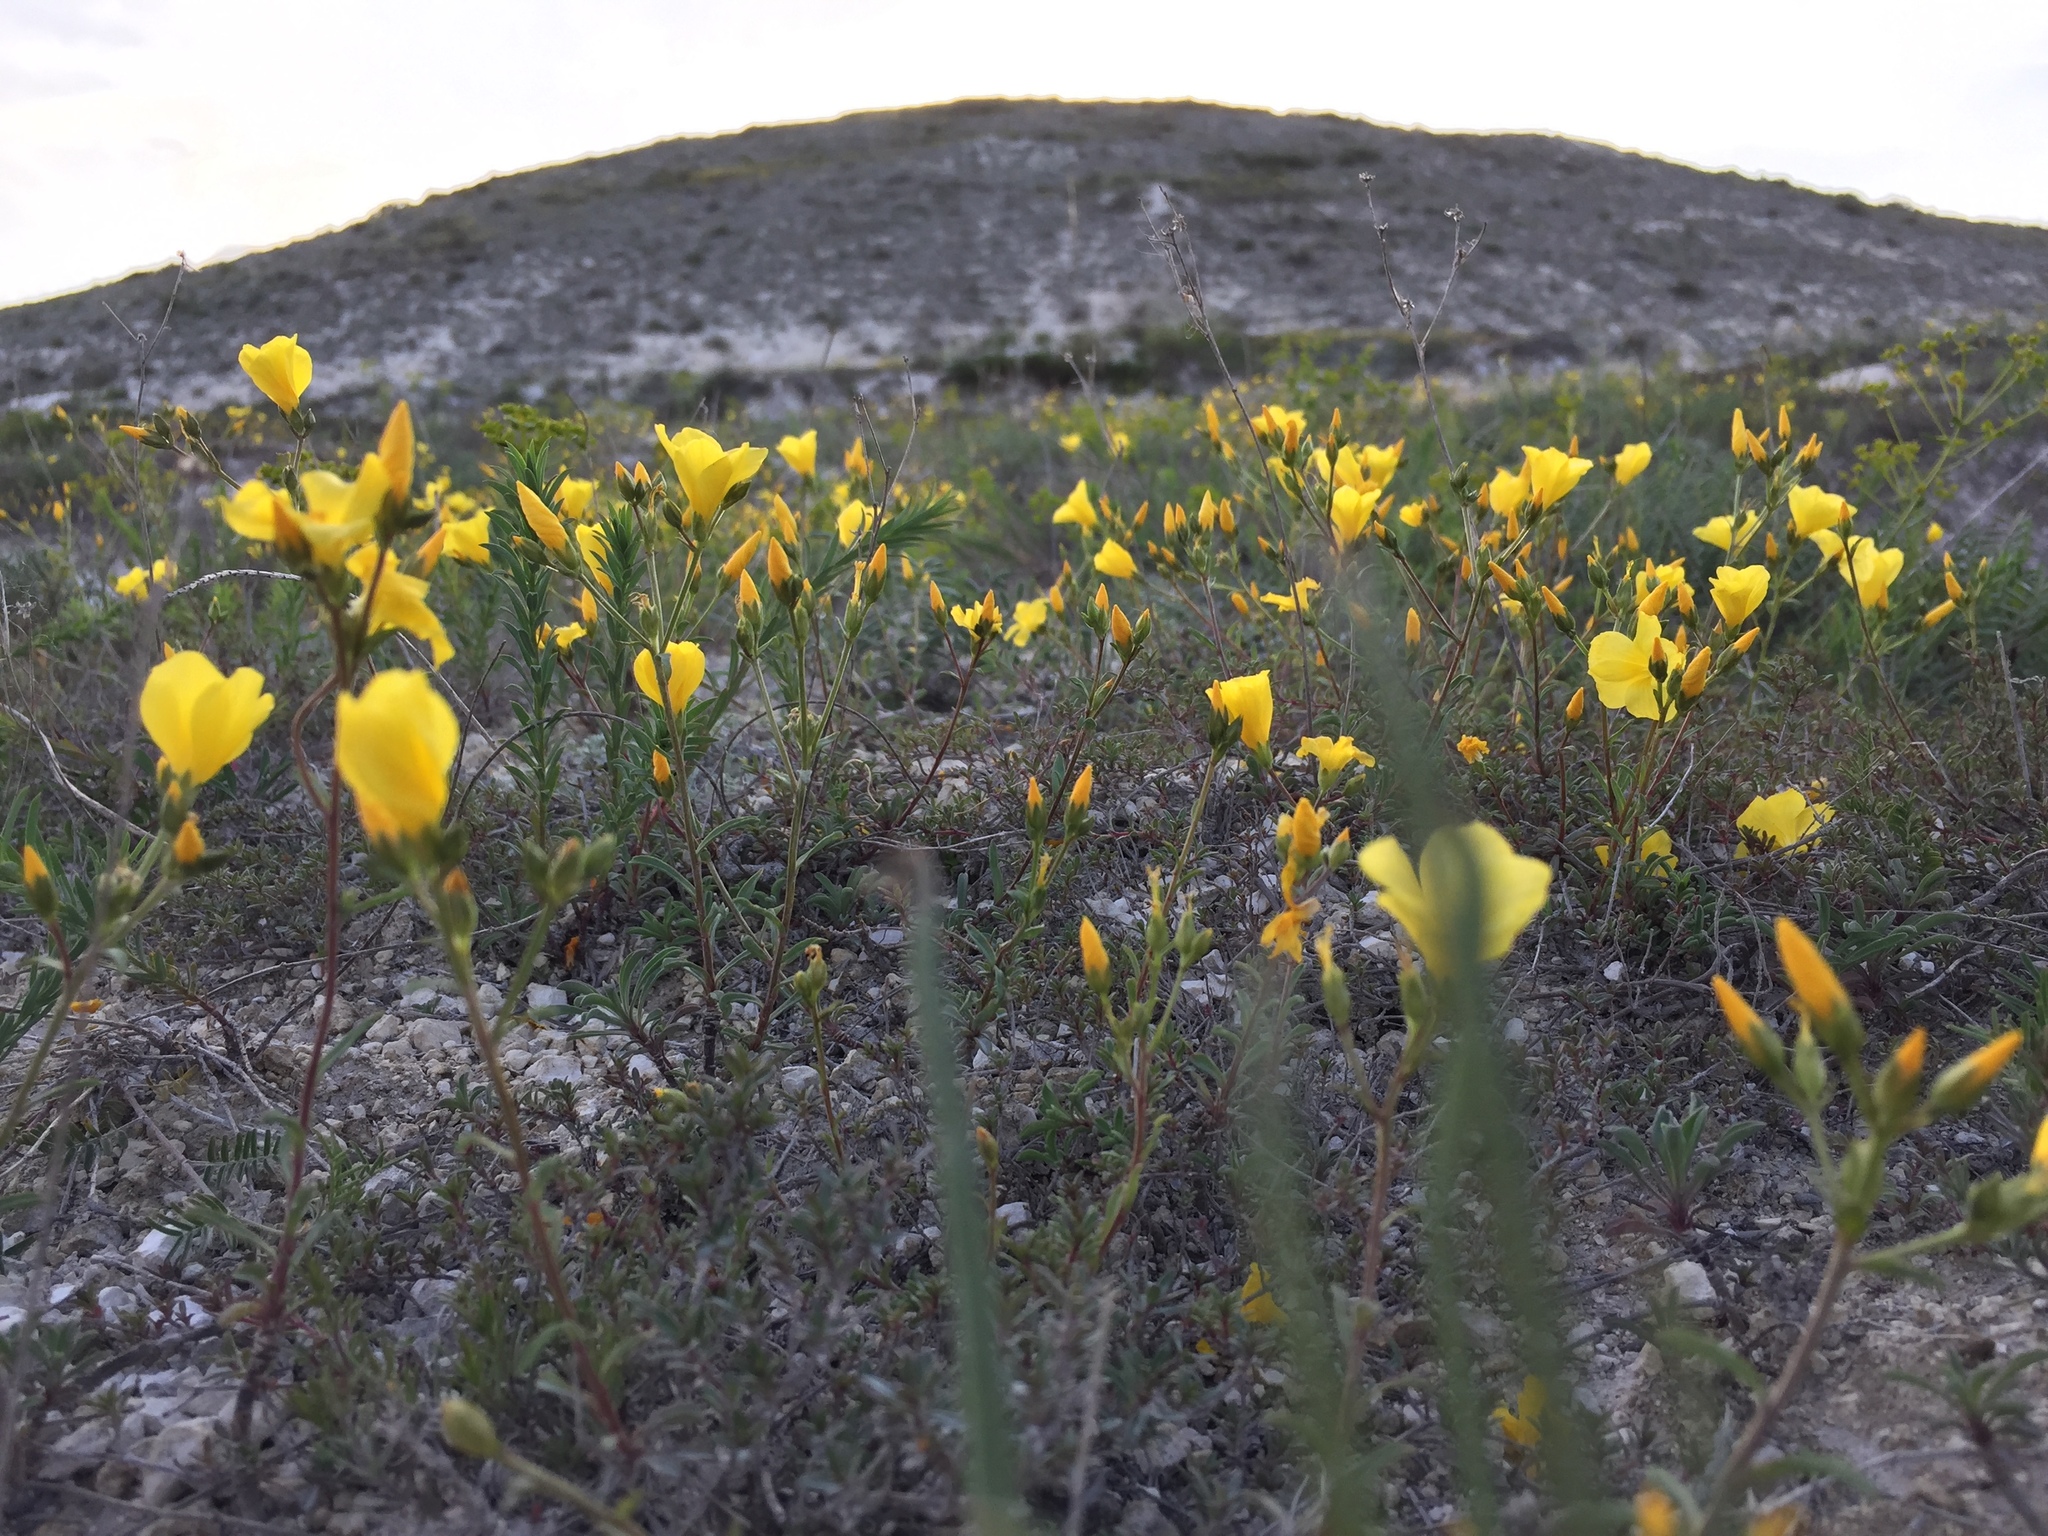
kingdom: Plantae
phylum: Tracheophyta
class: Magnoliopsida
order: Malpighiales
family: Linaceae
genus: Linum
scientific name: Linum ucranicum
